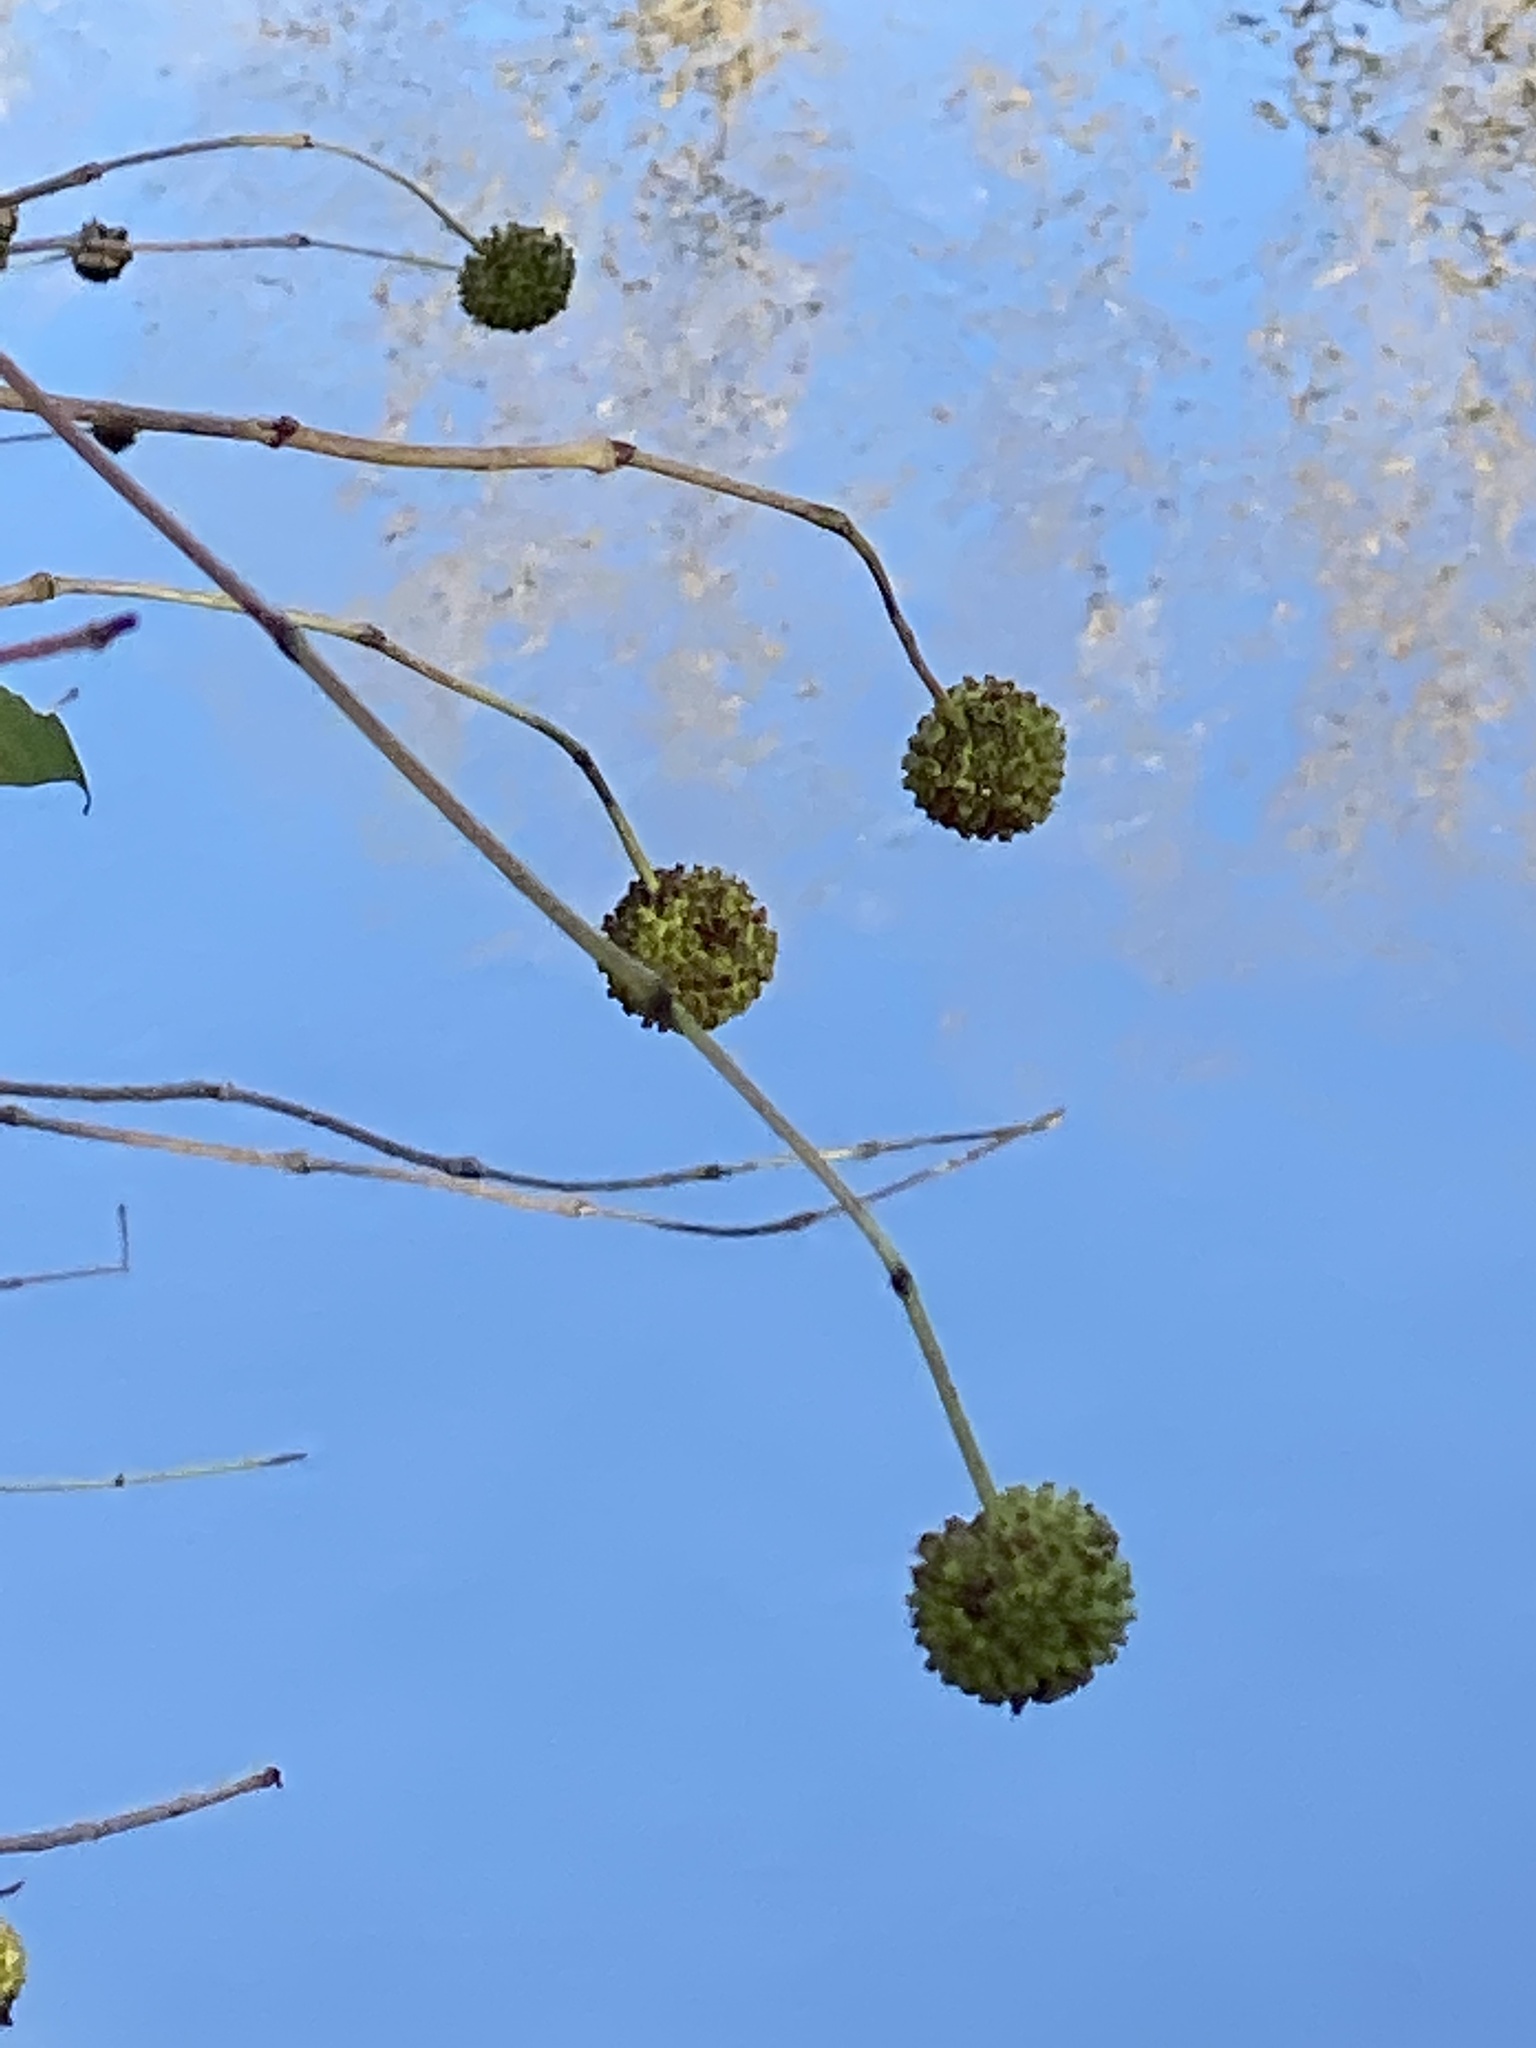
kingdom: Plantae
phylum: Tracheophyta
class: Magnoliopsida
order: Gentianales
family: Rubiaceae
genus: Cephalanthus
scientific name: Cephalanthus occidentalis
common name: Button-willow
